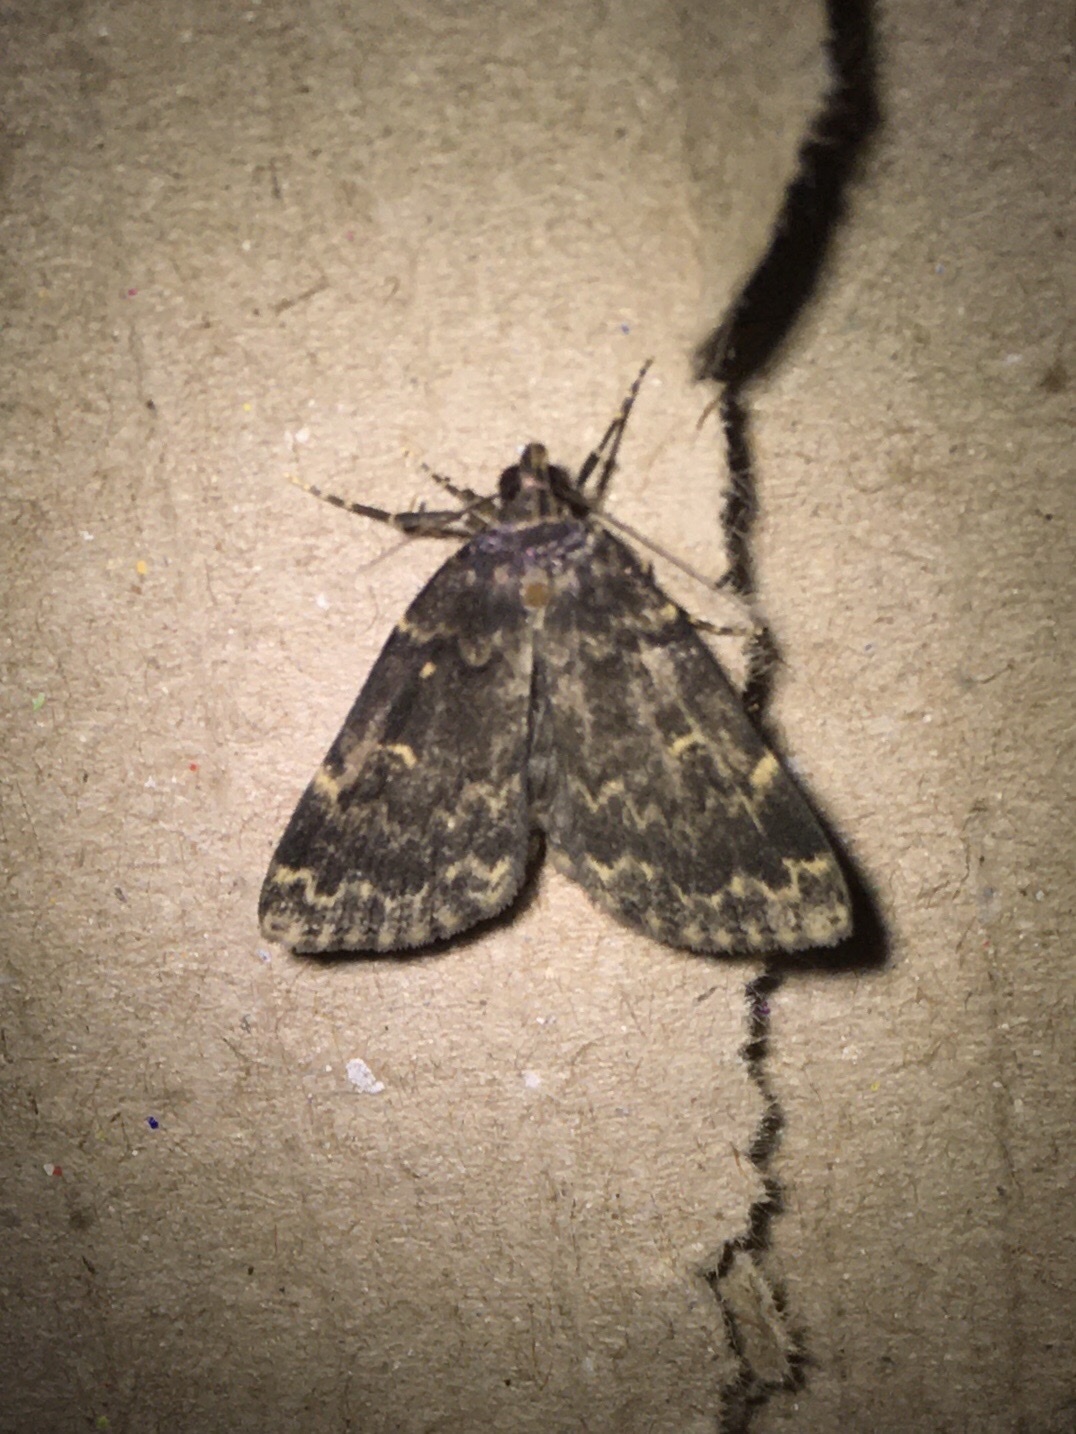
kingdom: Animalia
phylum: Arthropoda
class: Insecta
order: Lepidoptera
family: Erebidae
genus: Idia
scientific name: Idia lubricalis
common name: Twin-striped tabby
